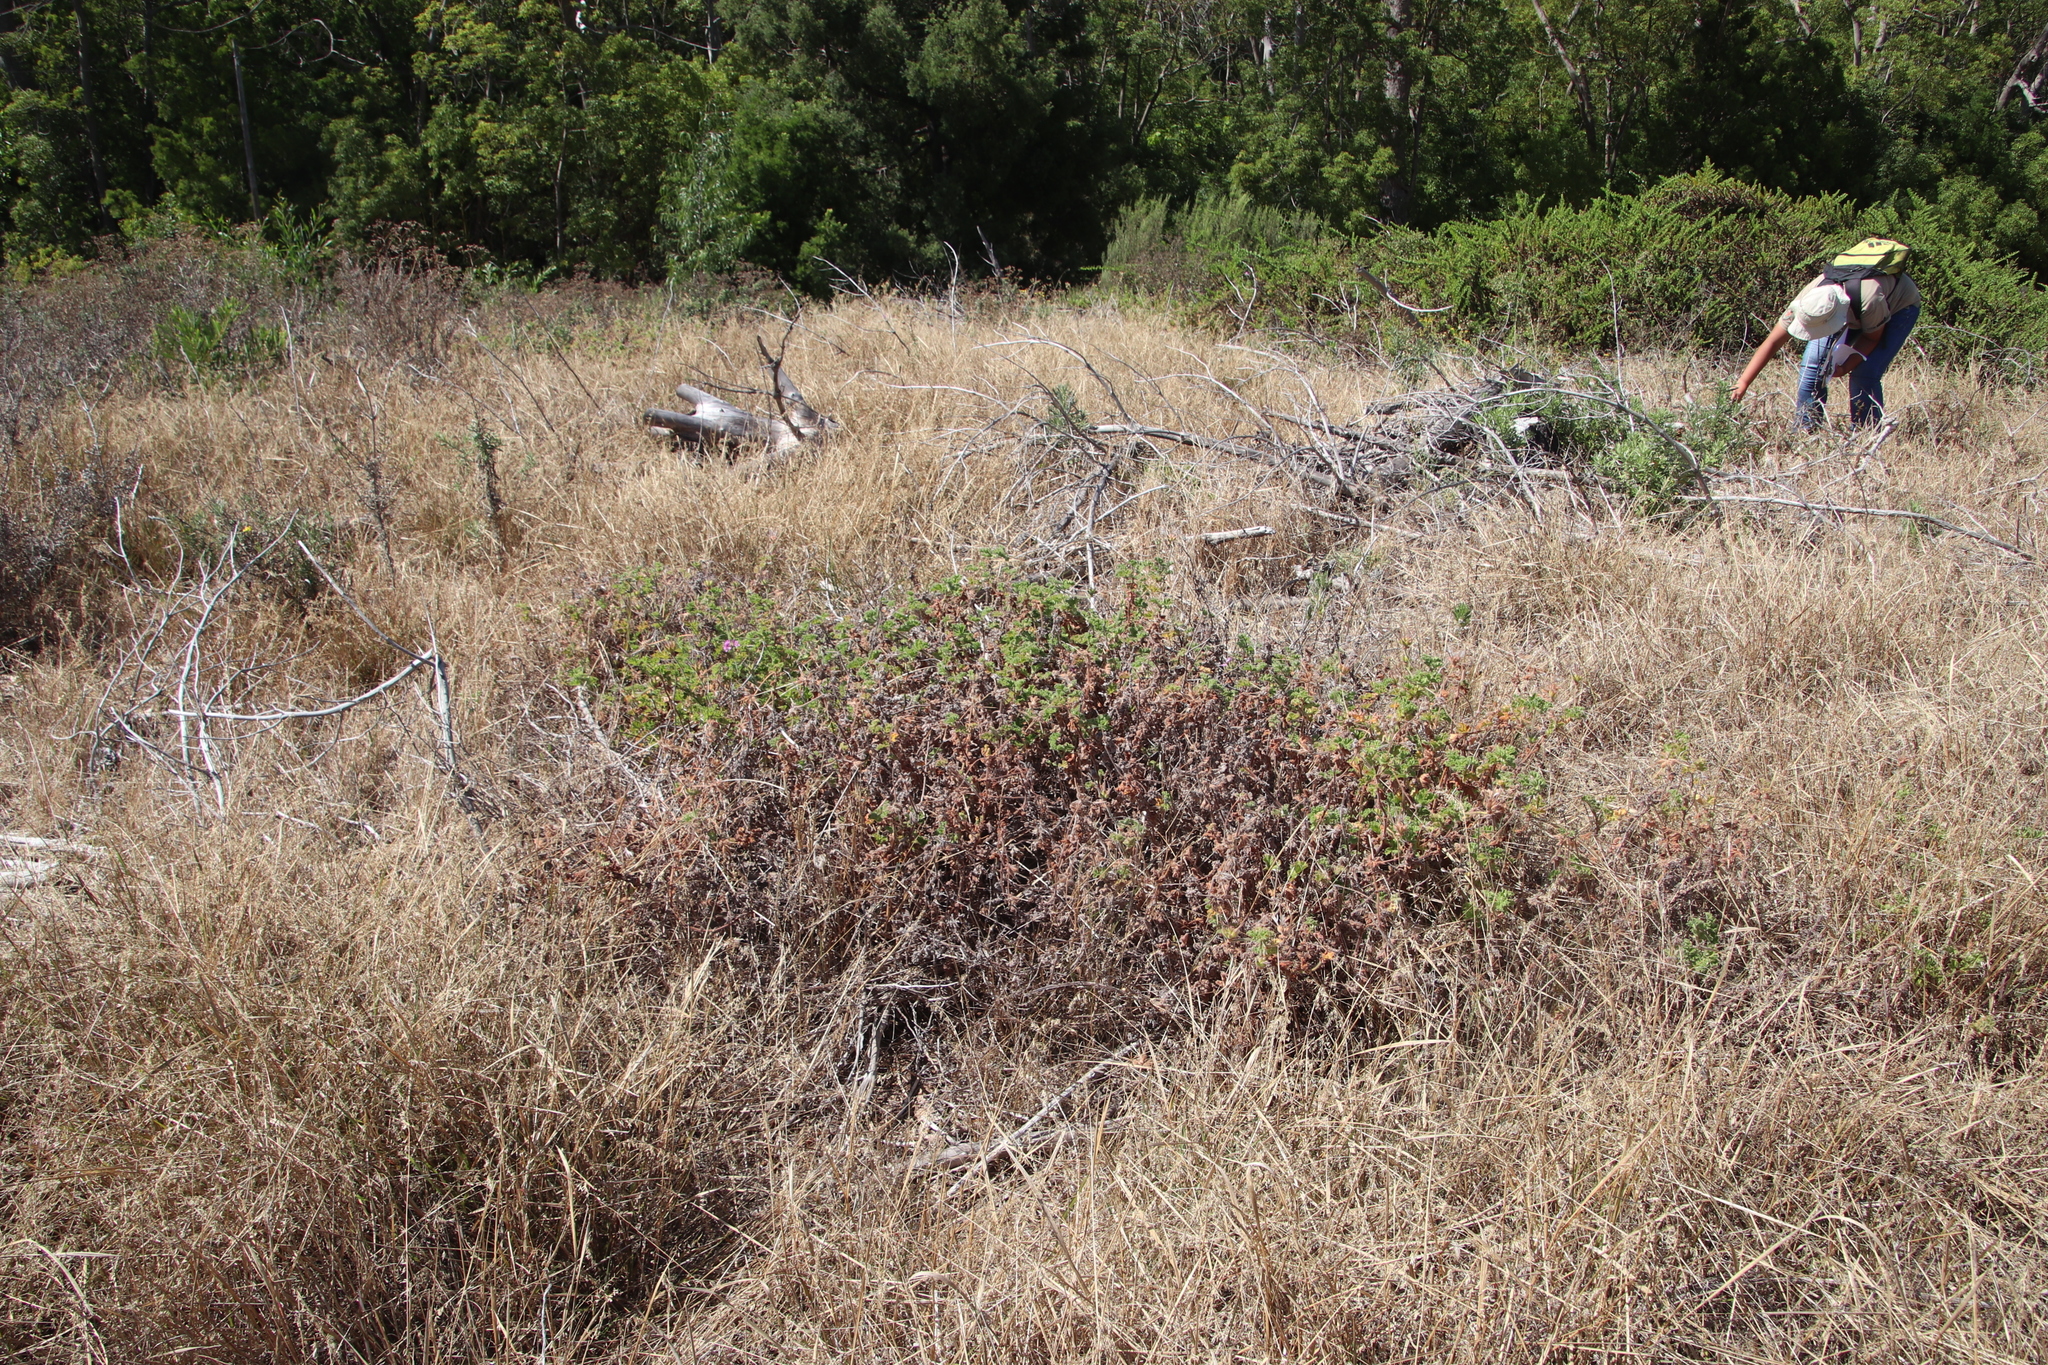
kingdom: Plantae
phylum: Tracheophyta
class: Magnoliopsida
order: Geraniales
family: Geraniaceae
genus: Pelargonium
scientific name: Pelargonium capitatum
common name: Rose scented geranium
